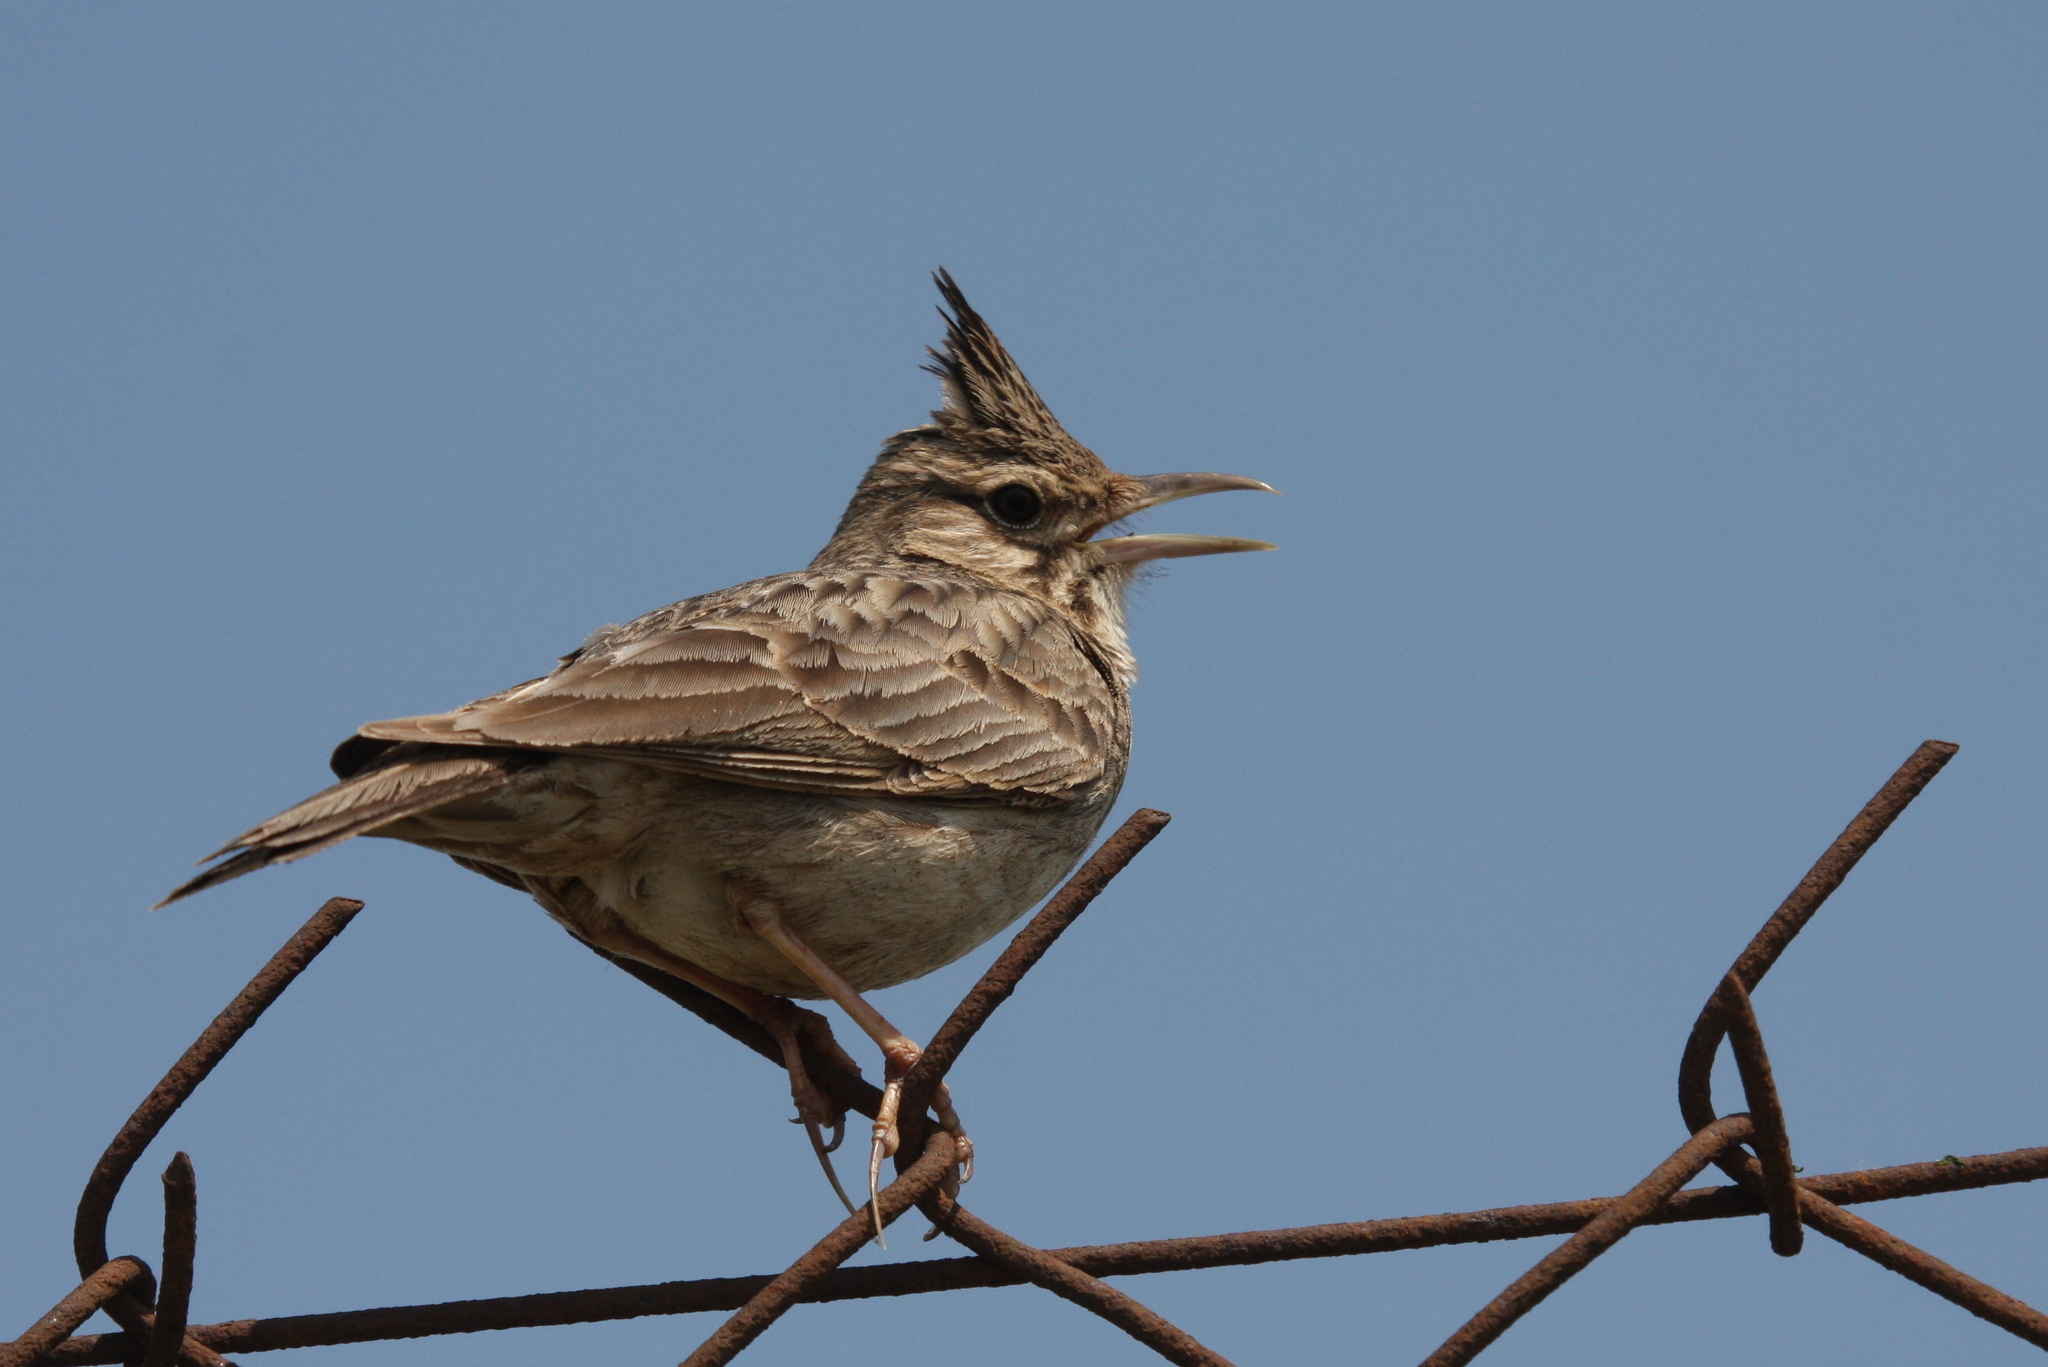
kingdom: Animalia
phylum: Chordata
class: Aves
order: Passeriformes
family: Alaudidae
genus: Galerida
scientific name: Galerida cristata
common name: Crested lark
